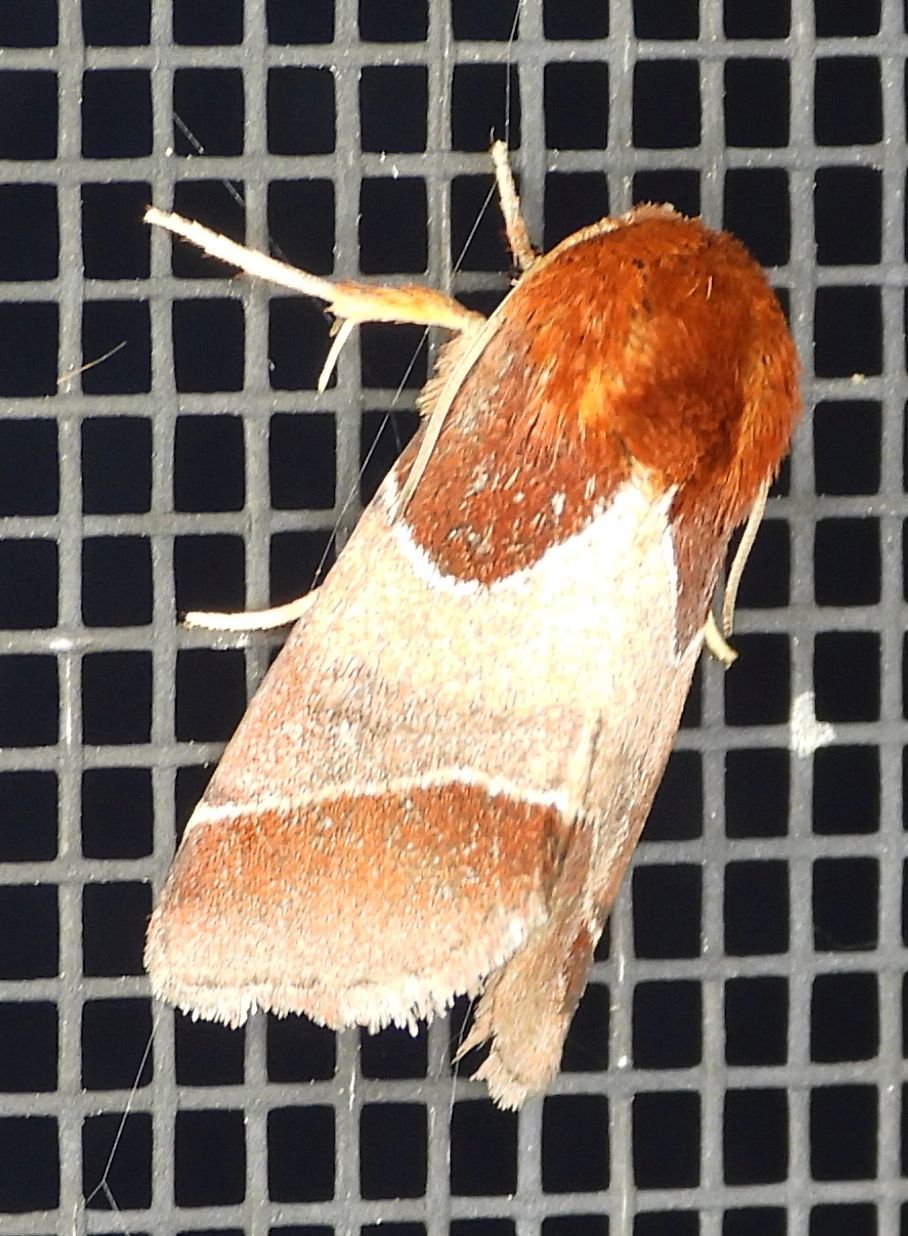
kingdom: Animalia
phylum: Arthropoda
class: Insecta
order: Lepidoptera
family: Noctuidae
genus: Schinia
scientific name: Schinia arcigera
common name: Arcigera flower moth
